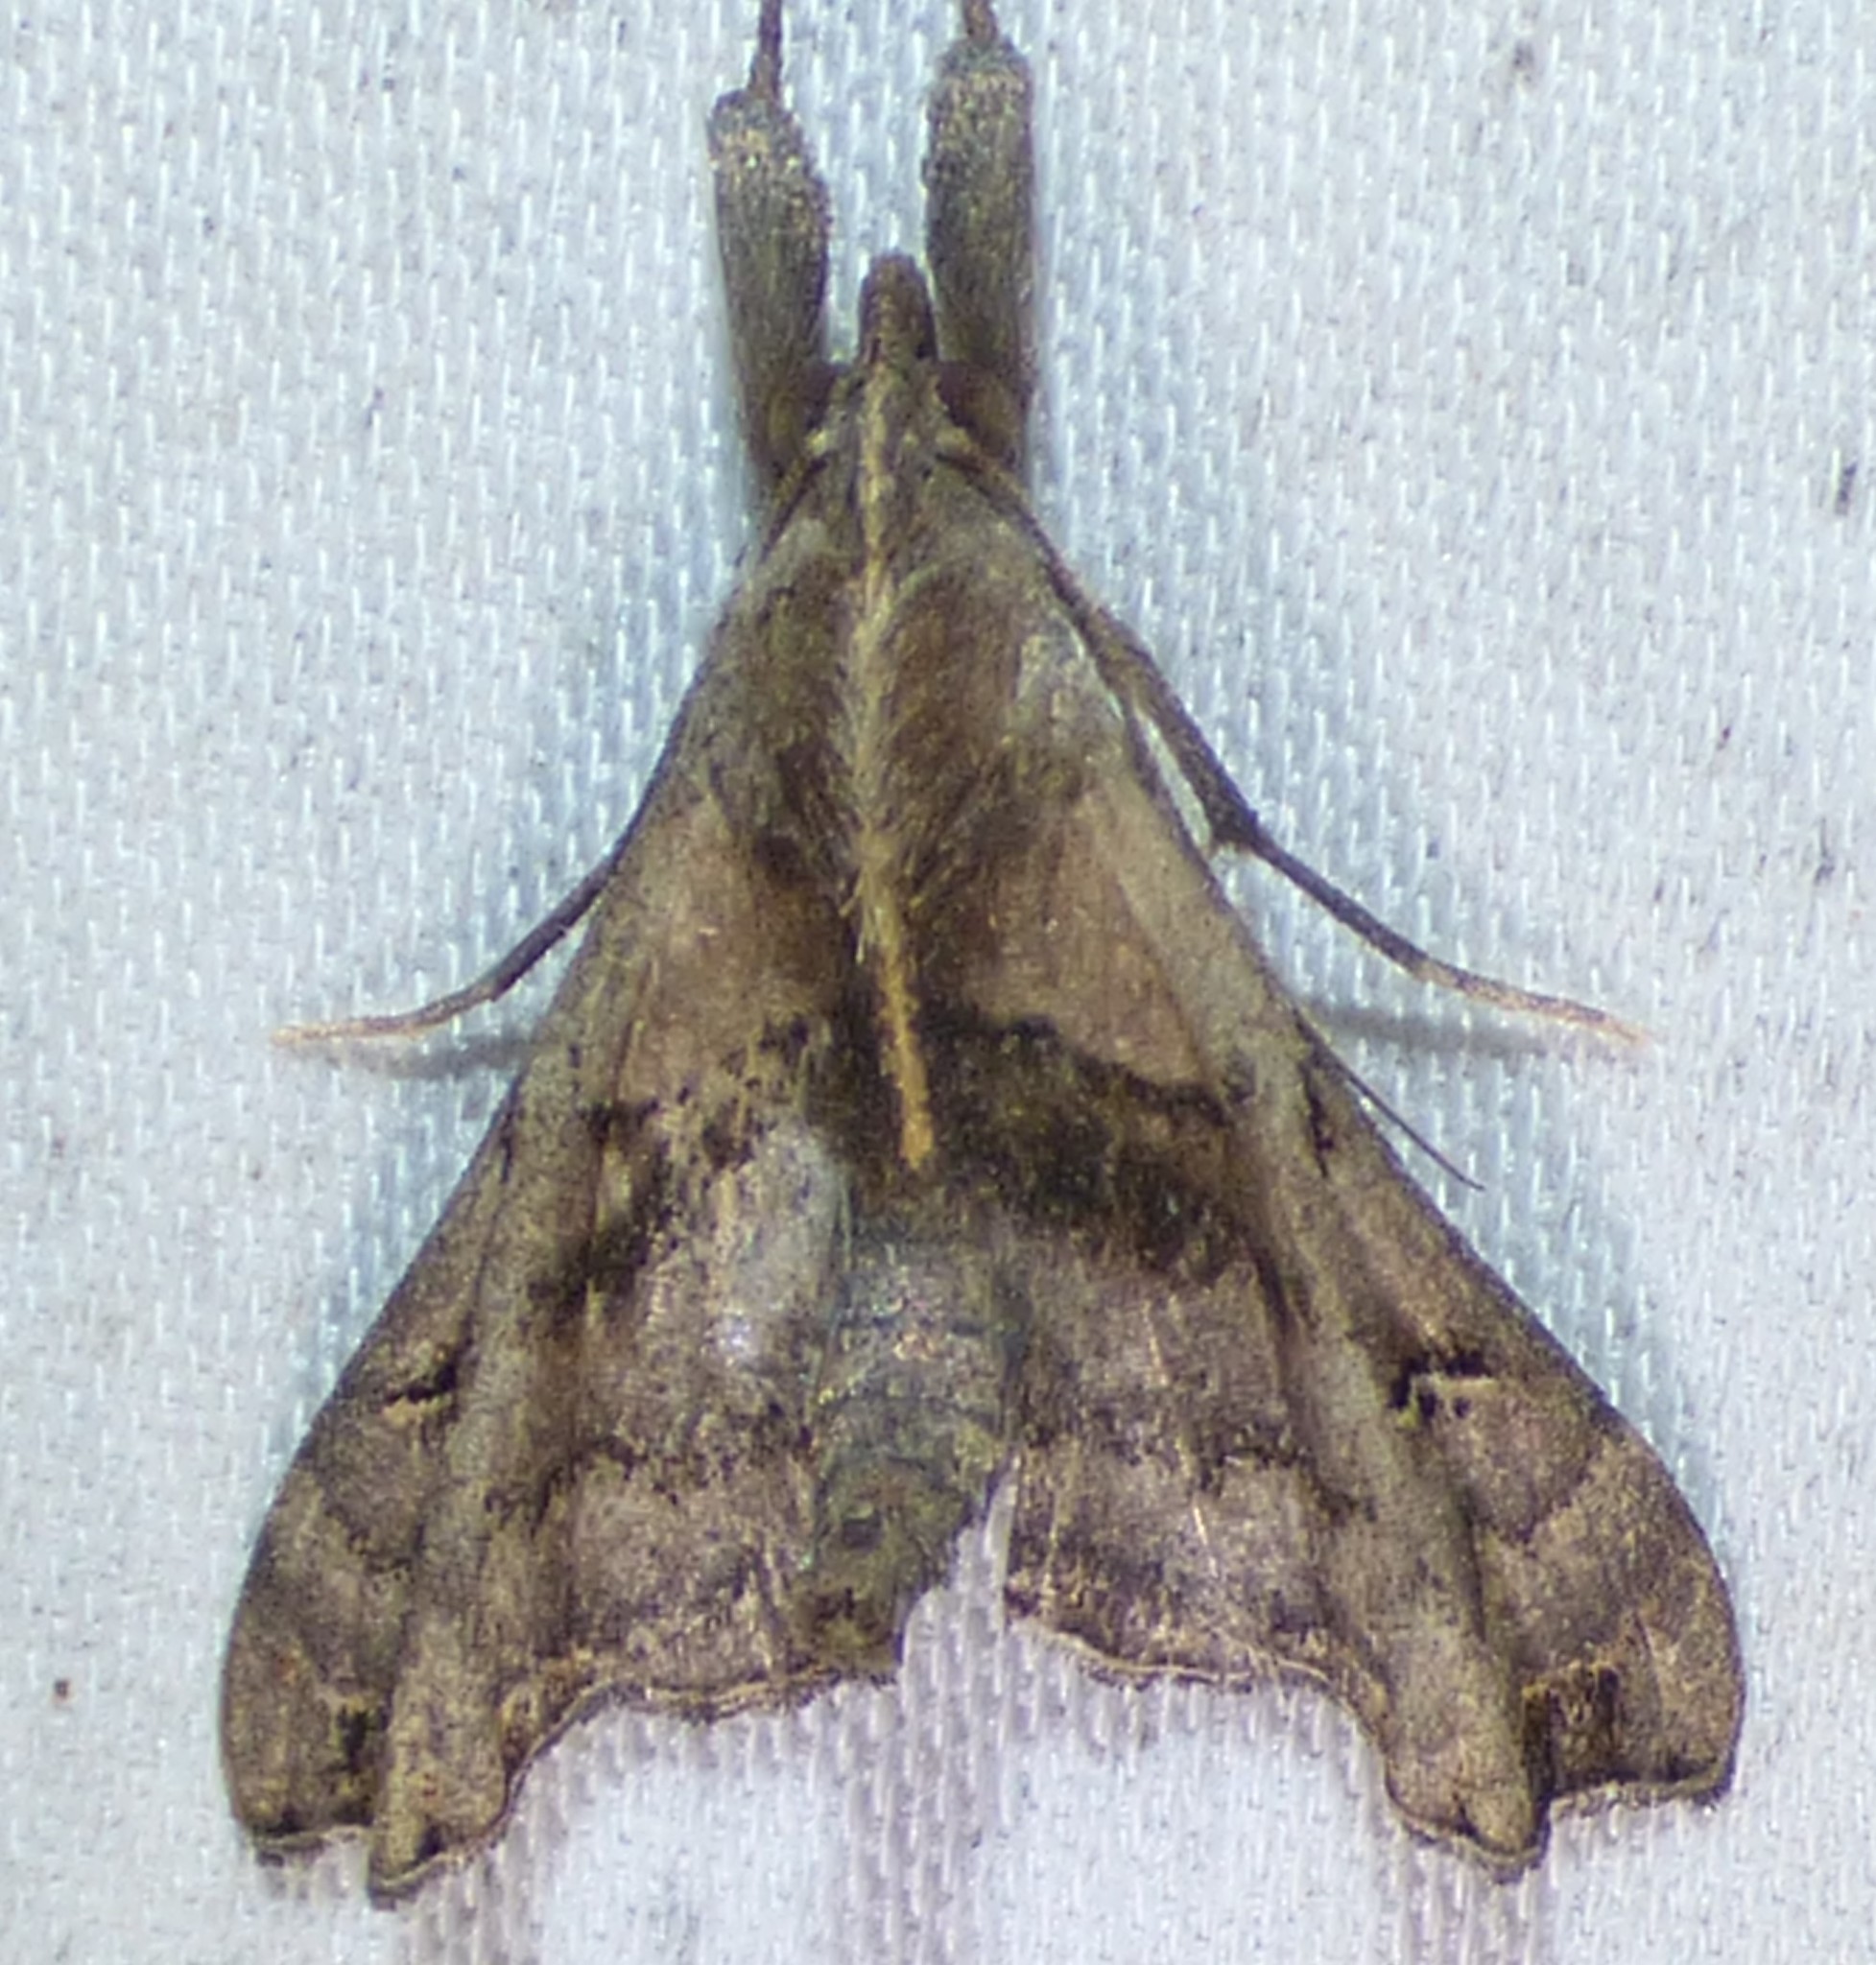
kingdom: Animalia
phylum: Arthropoda
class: Insecta
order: Lepidoptera
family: Erebidae
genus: Palthis
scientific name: Palthis asopialis
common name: Faint-spotted palthis moth
